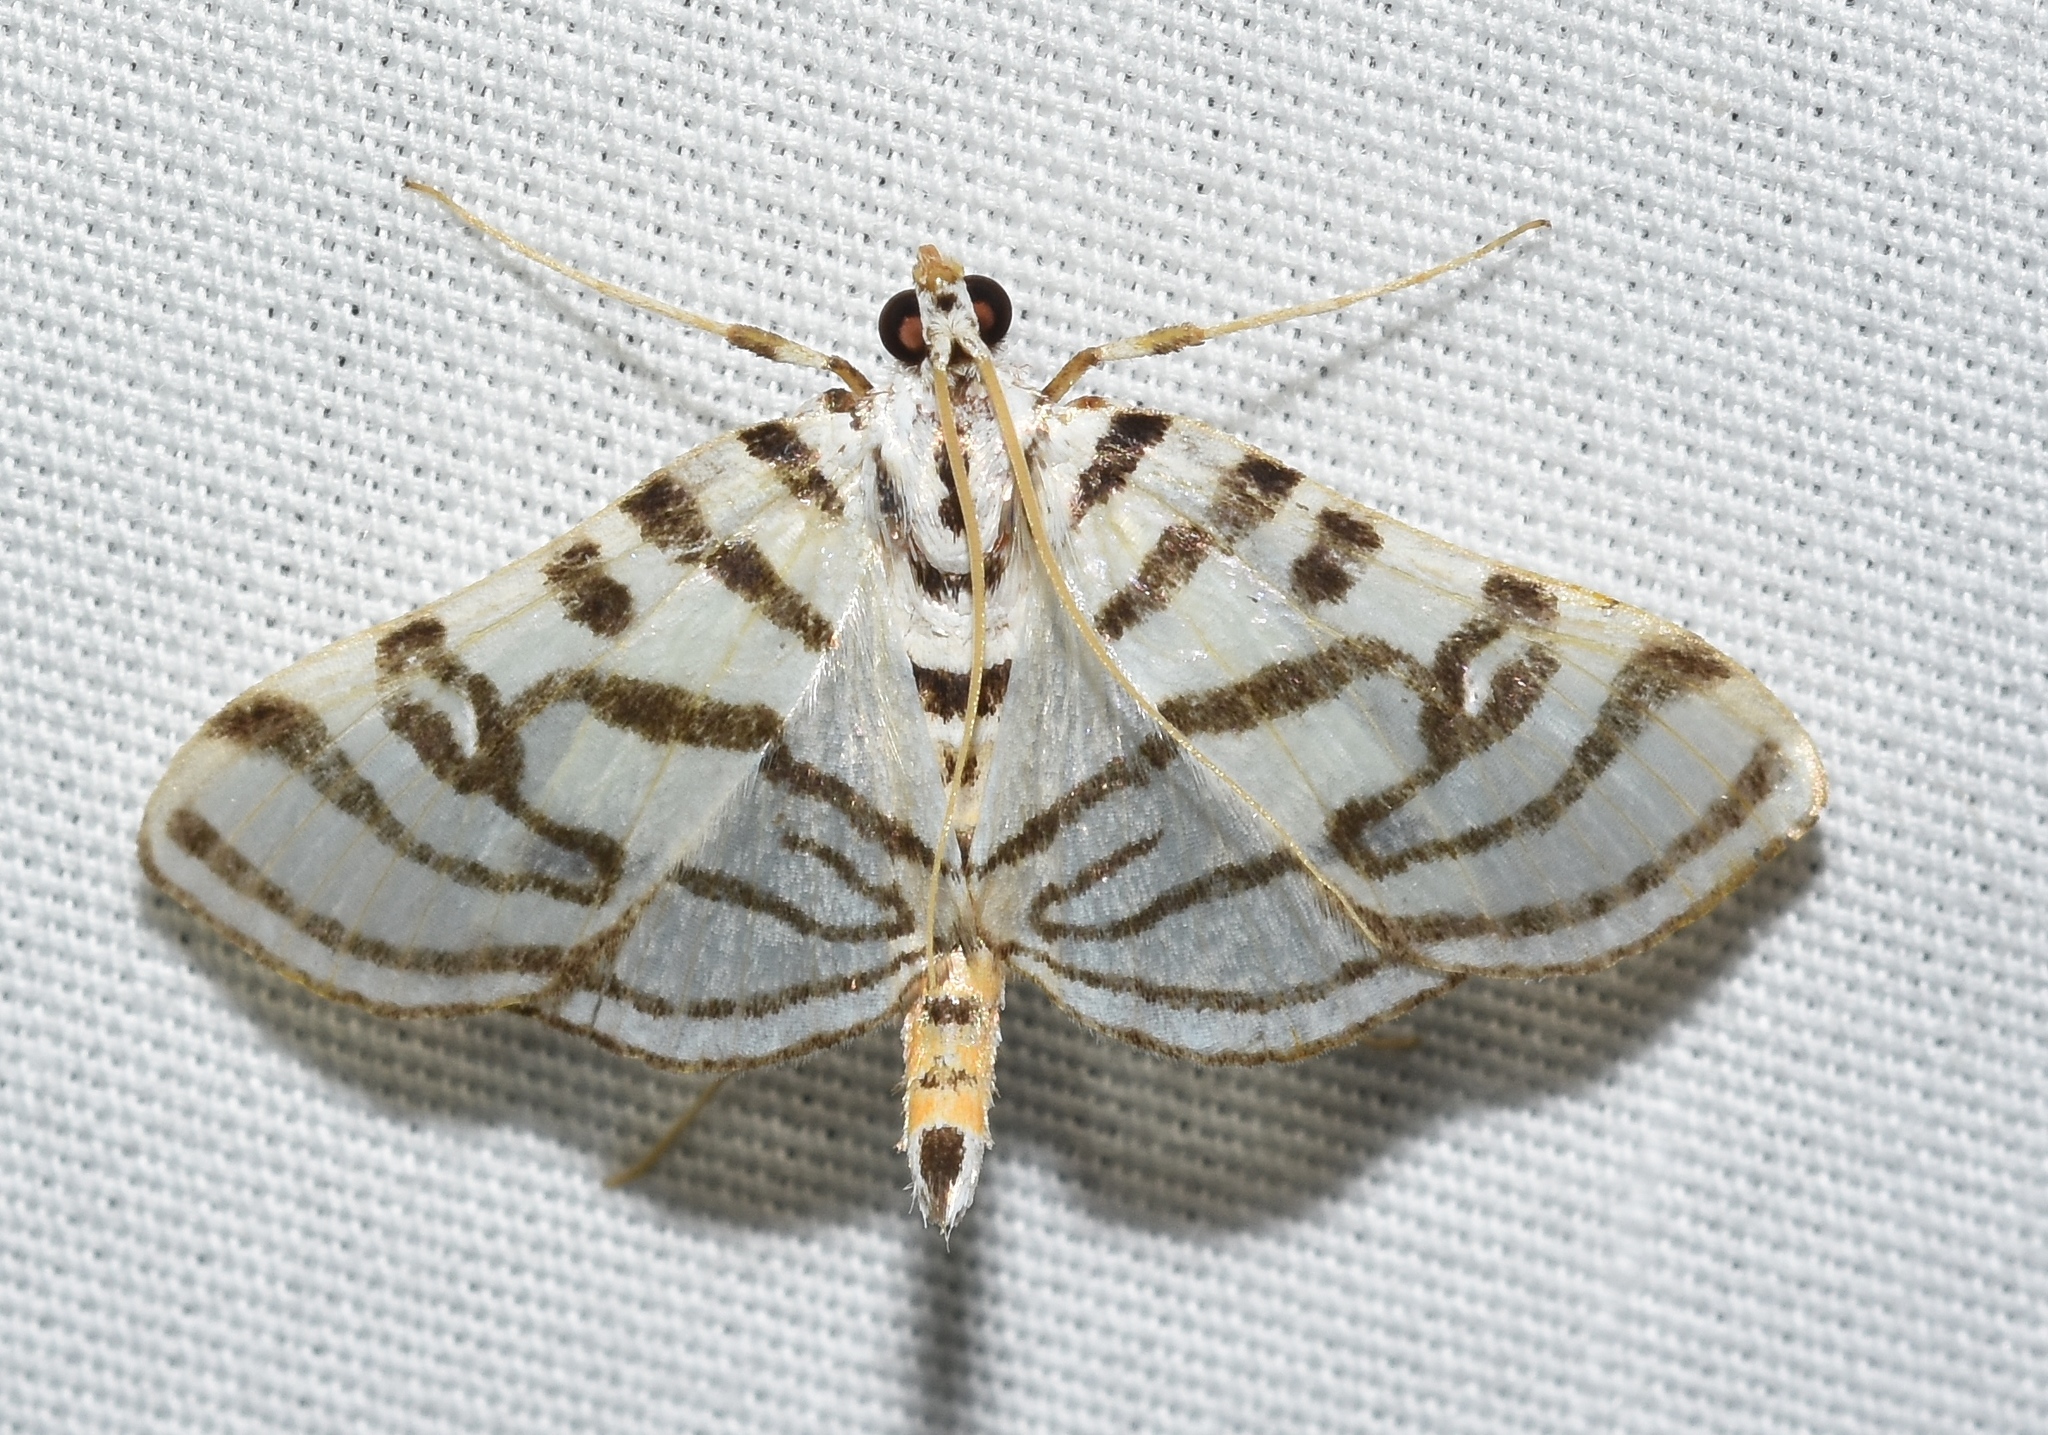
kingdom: Animalia
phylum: Arthropoda
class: Insecta
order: Lepidoptera
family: Crambidae
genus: Conchylodes
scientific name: Conchylodes ovulalis
